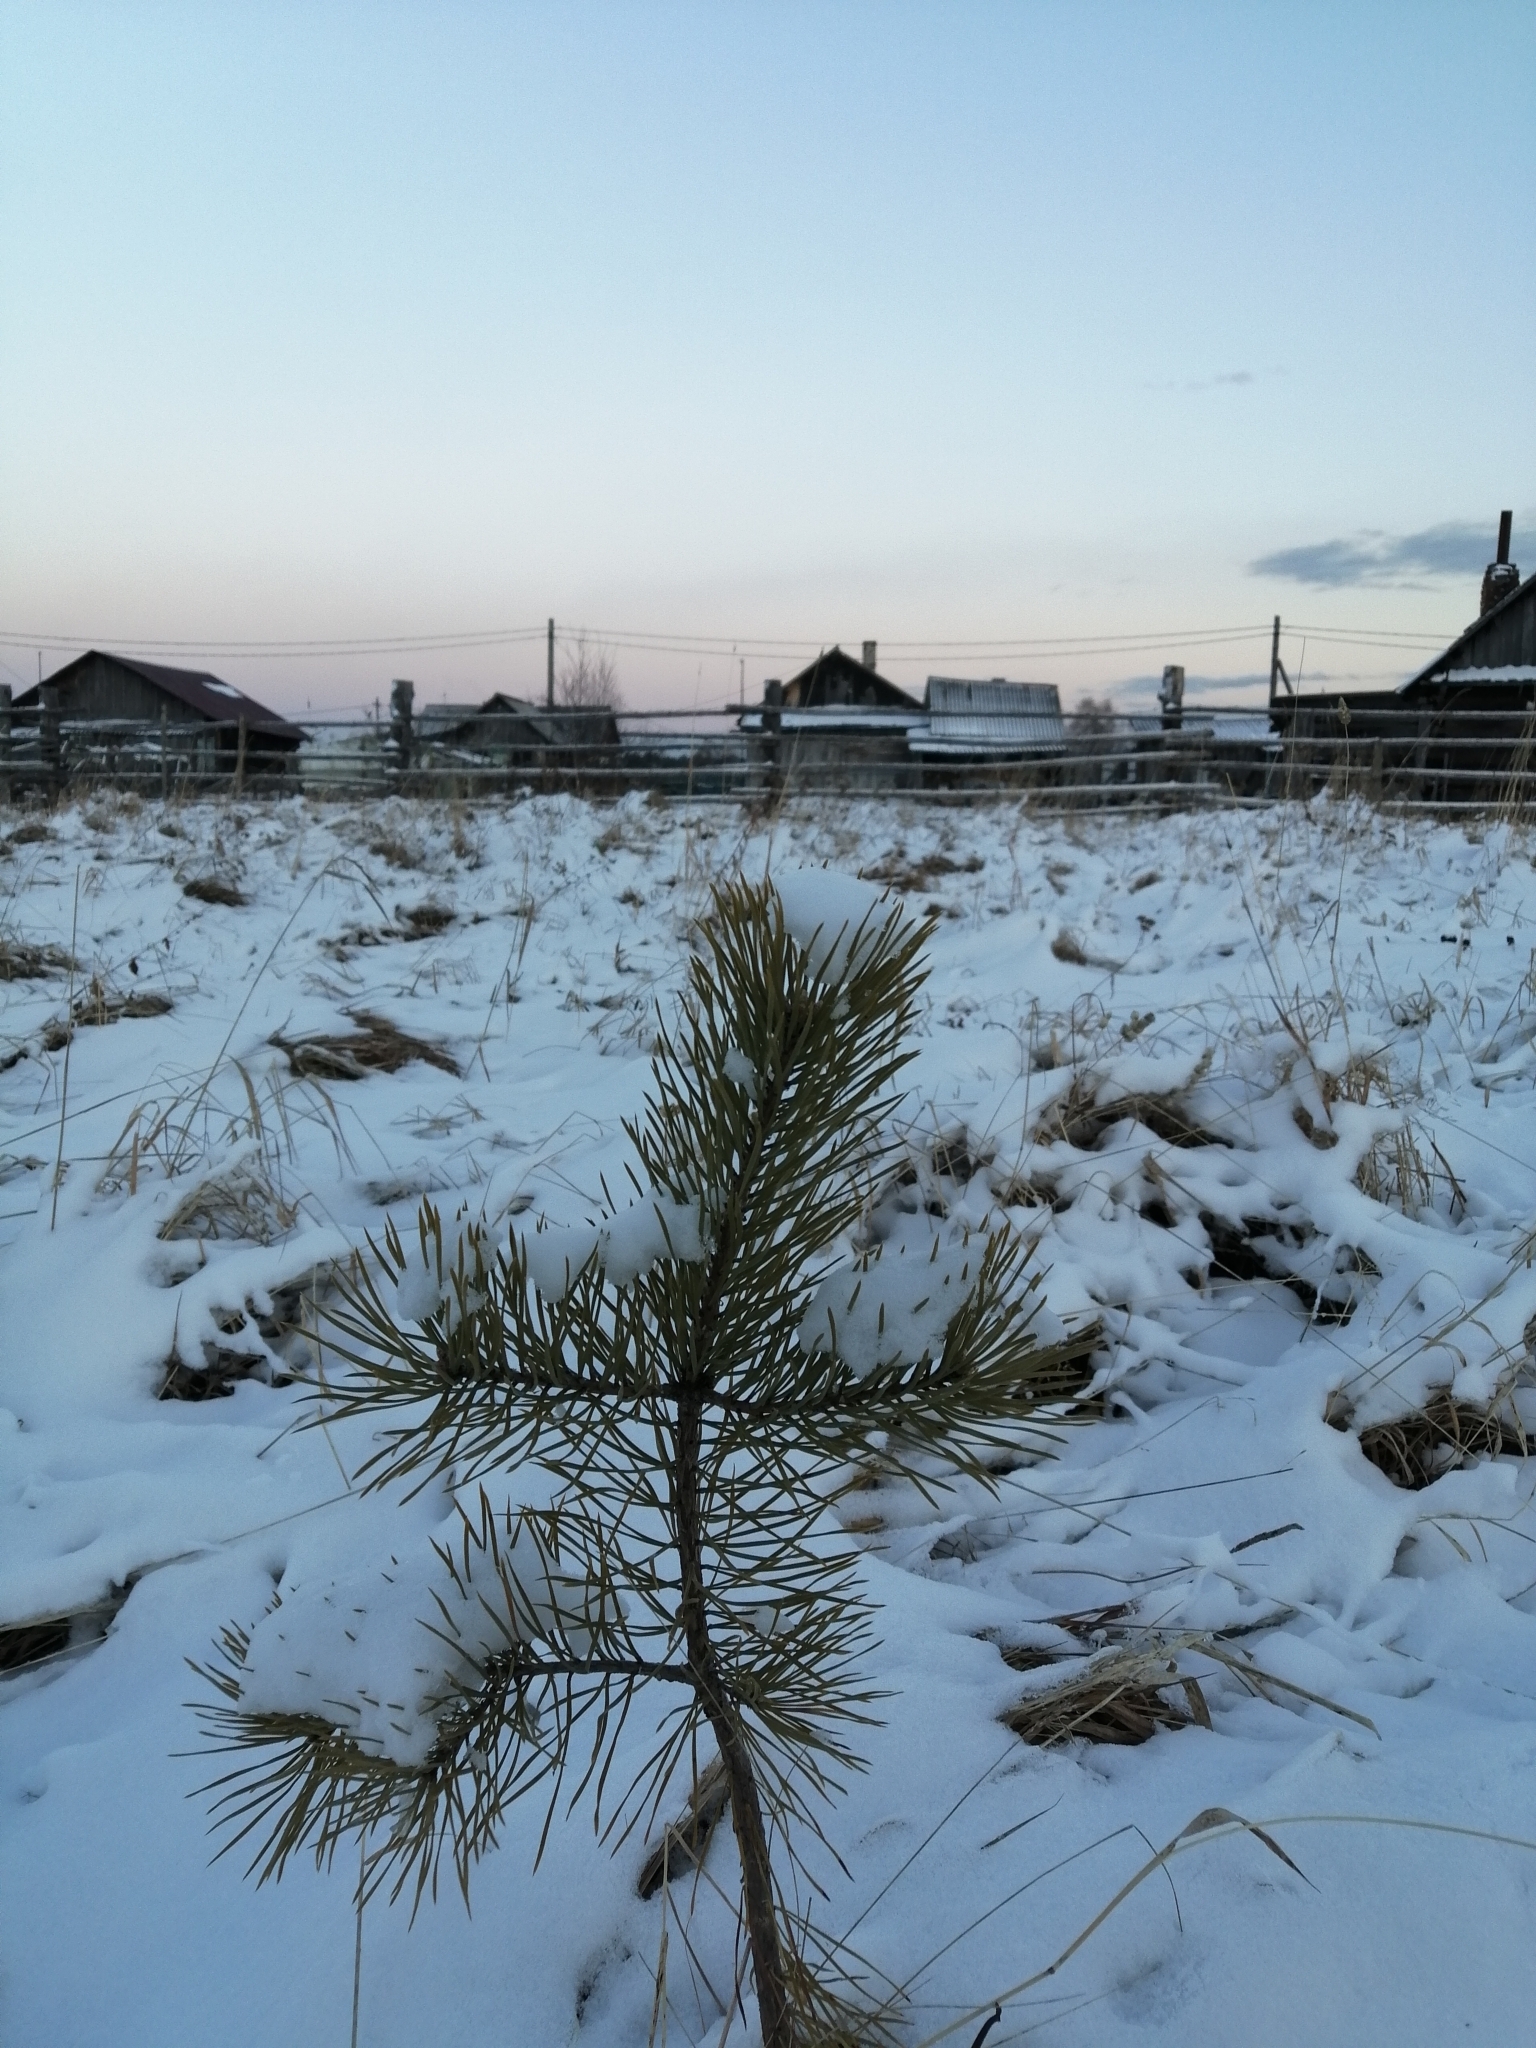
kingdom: Plantae
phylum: Tracheophyta
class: Pinopsida
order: Pinales
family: Pinaceae
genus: Pinus
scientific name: Pinus sylvestris
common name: Scots pine
